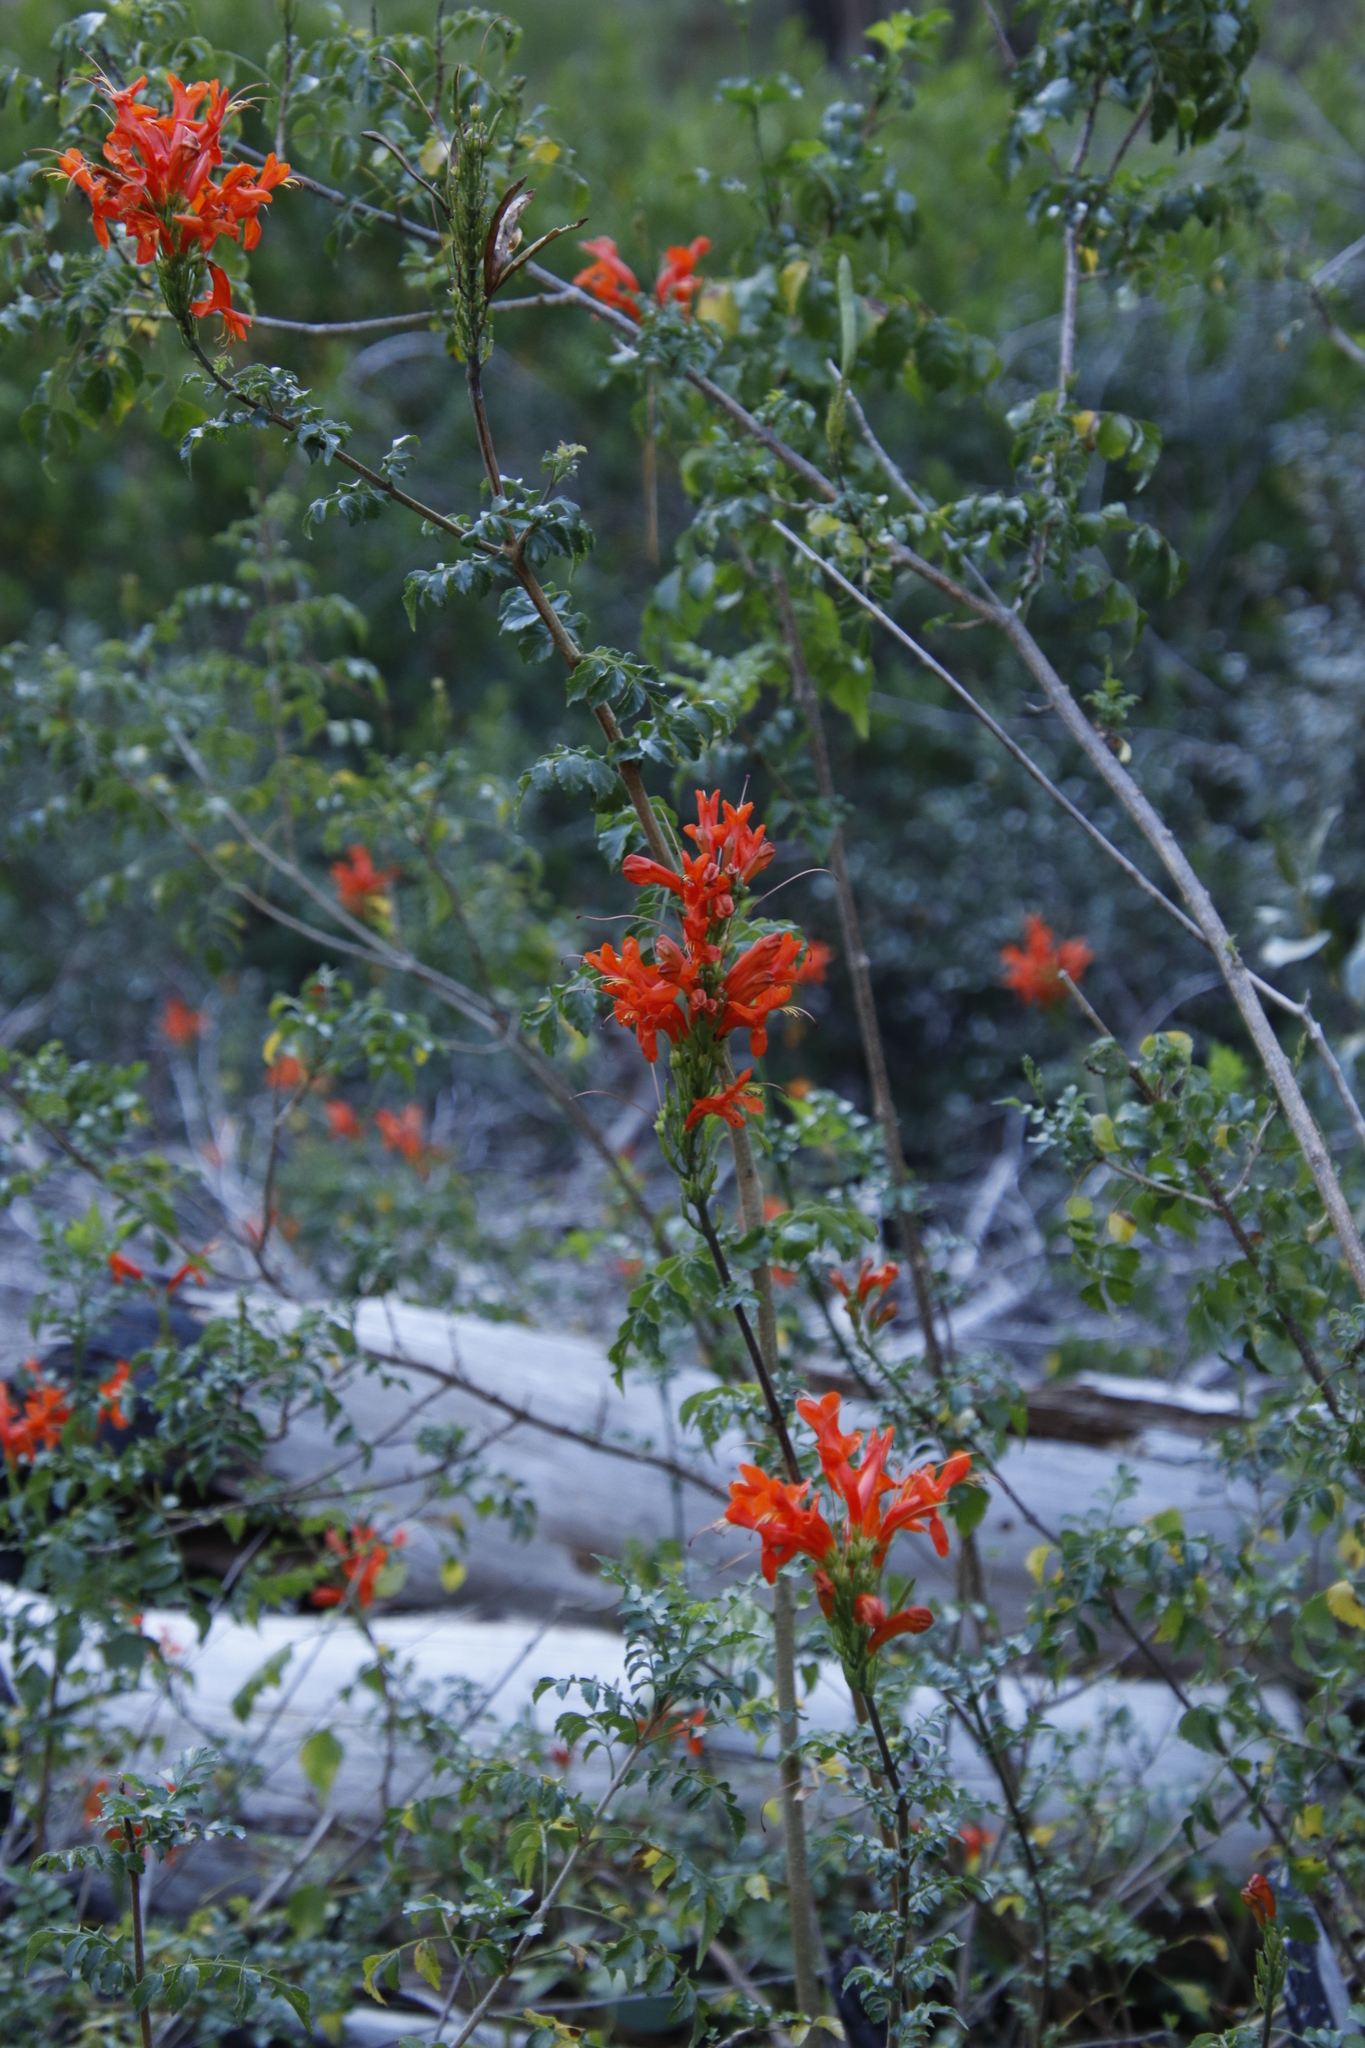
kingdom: Plantae
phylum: Tracheophyta
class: Magnoliopsida
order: Lamiales
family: Bignoniaceae
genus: Tecomaria
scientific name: Tecomaria capensis
